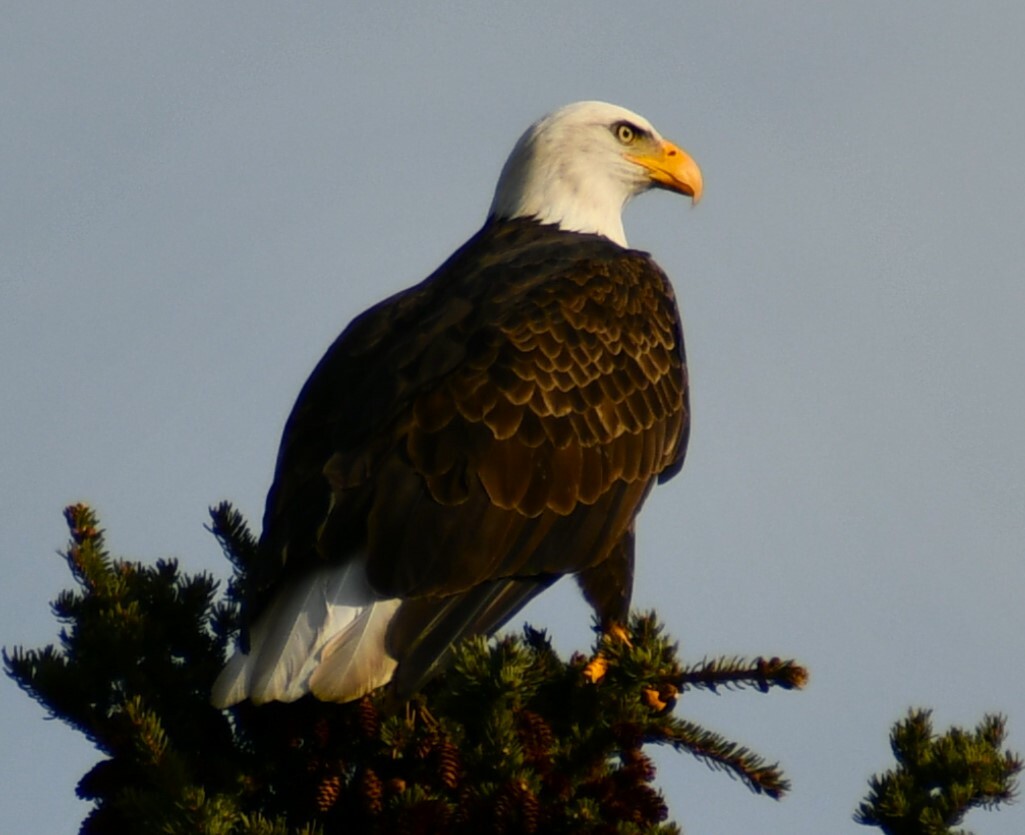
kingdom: Animalia
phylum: Chordata
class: Aves
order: Accipitriformes
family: Accipitridae
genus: Haliaeetus
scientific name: Haliaeetus leucocephalus
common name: Bald eagle
